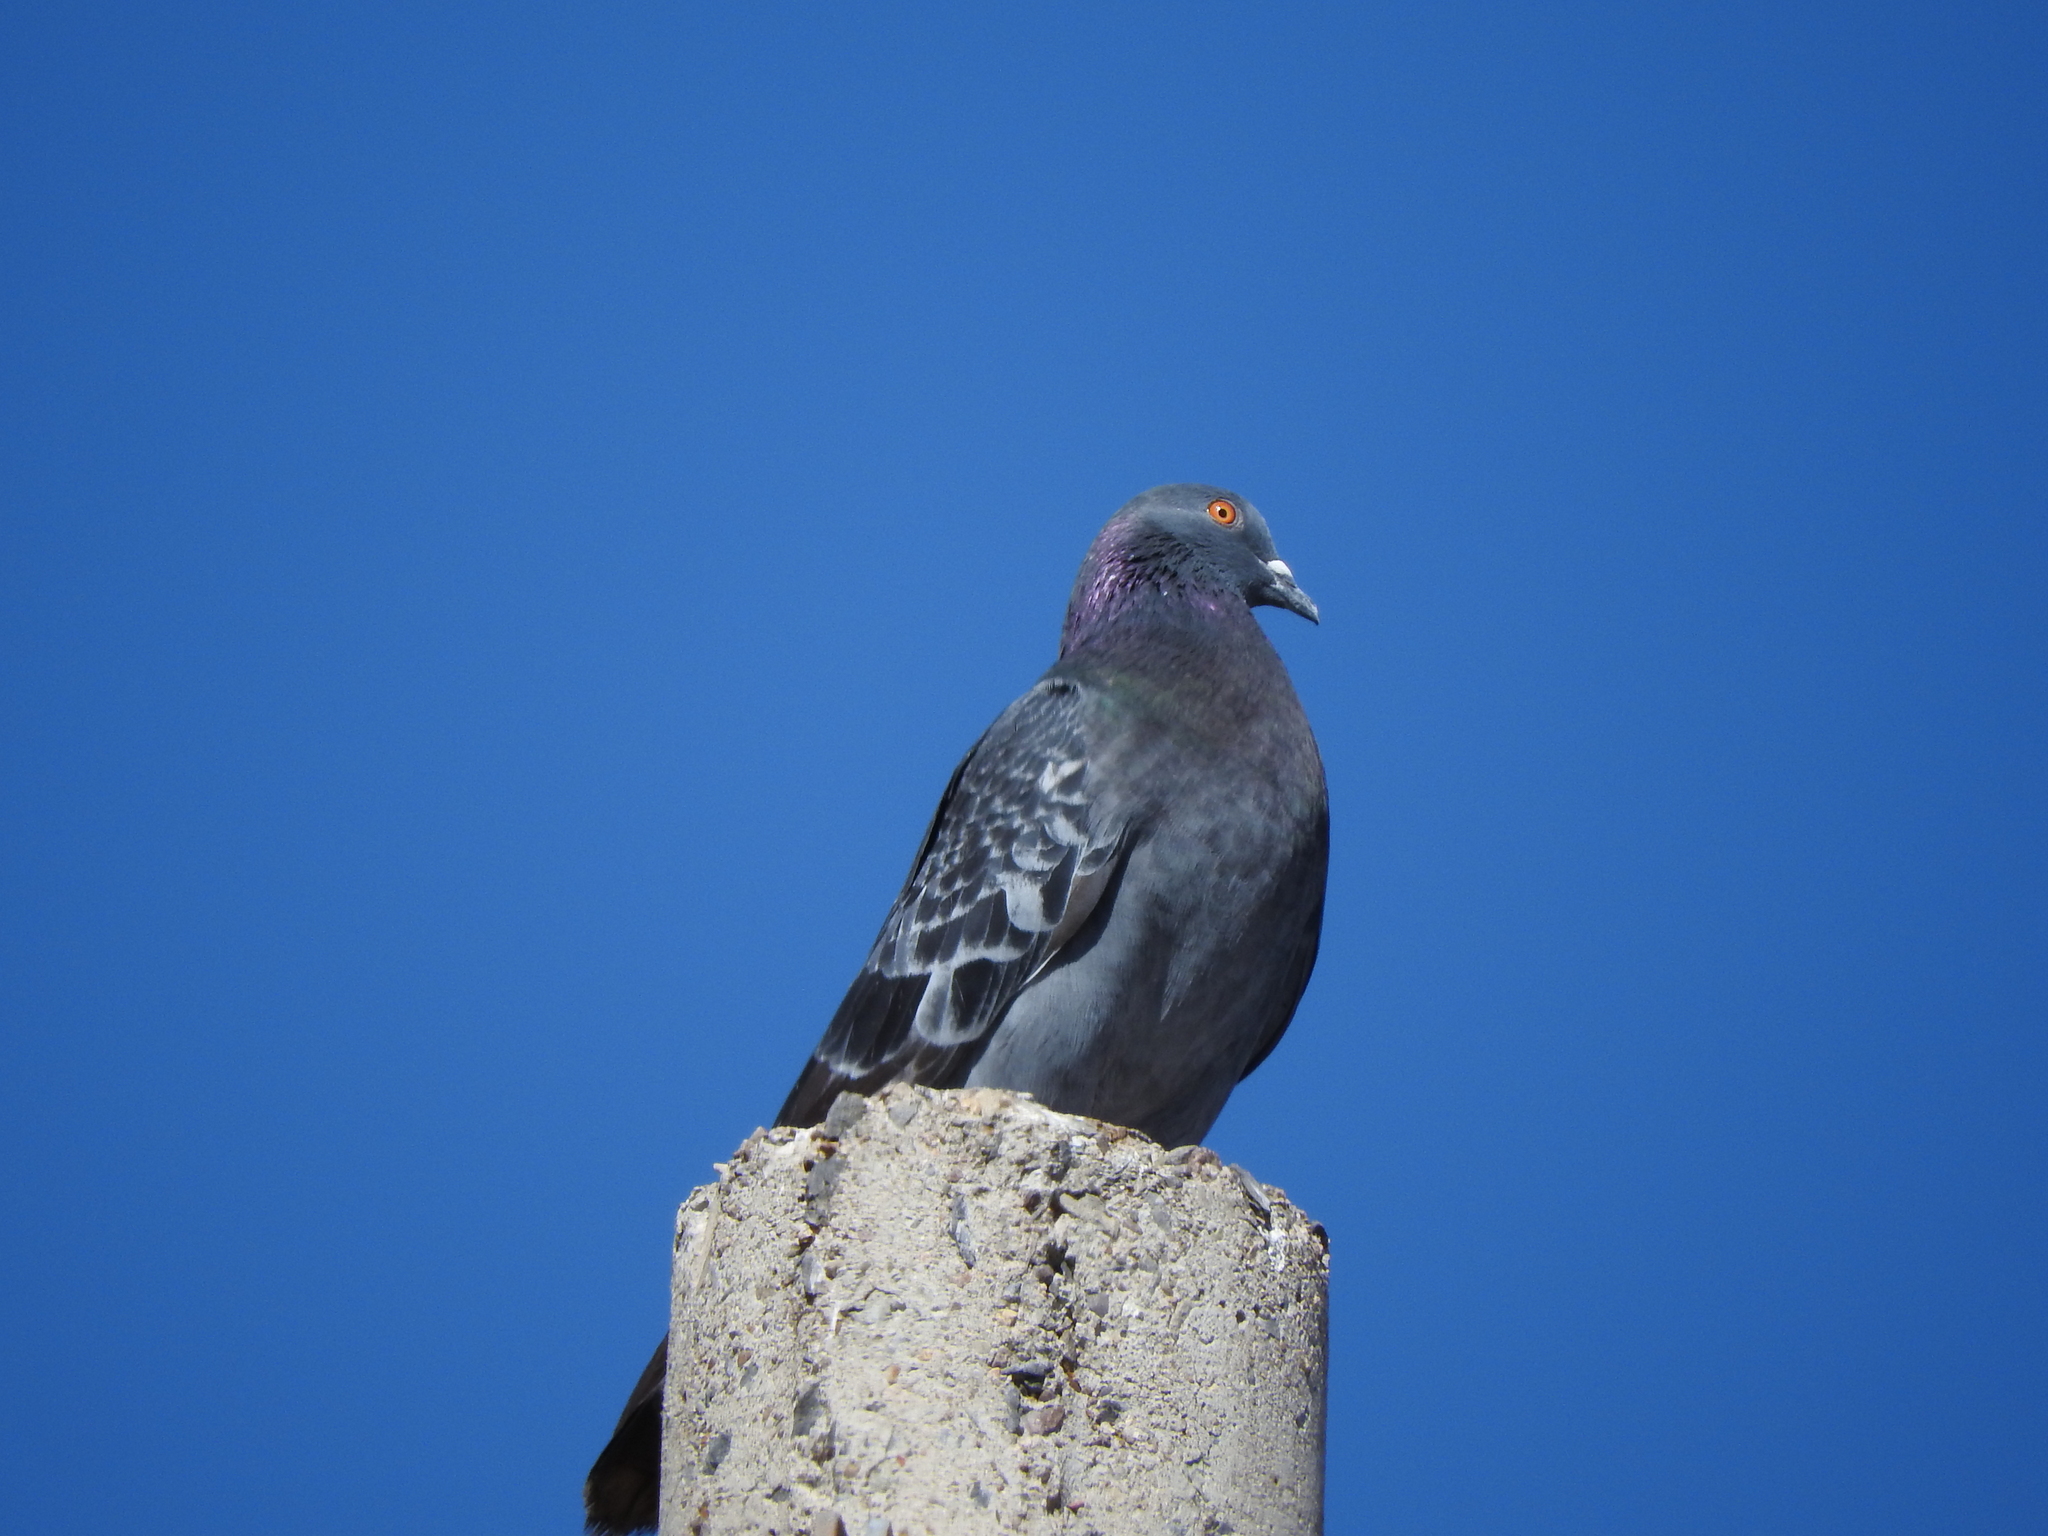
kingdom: Animalia
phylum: Chordata
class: Aves
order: Columbiformes
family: Columbidae
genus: Columba
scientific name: Columba livia
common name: Rock pigeon
